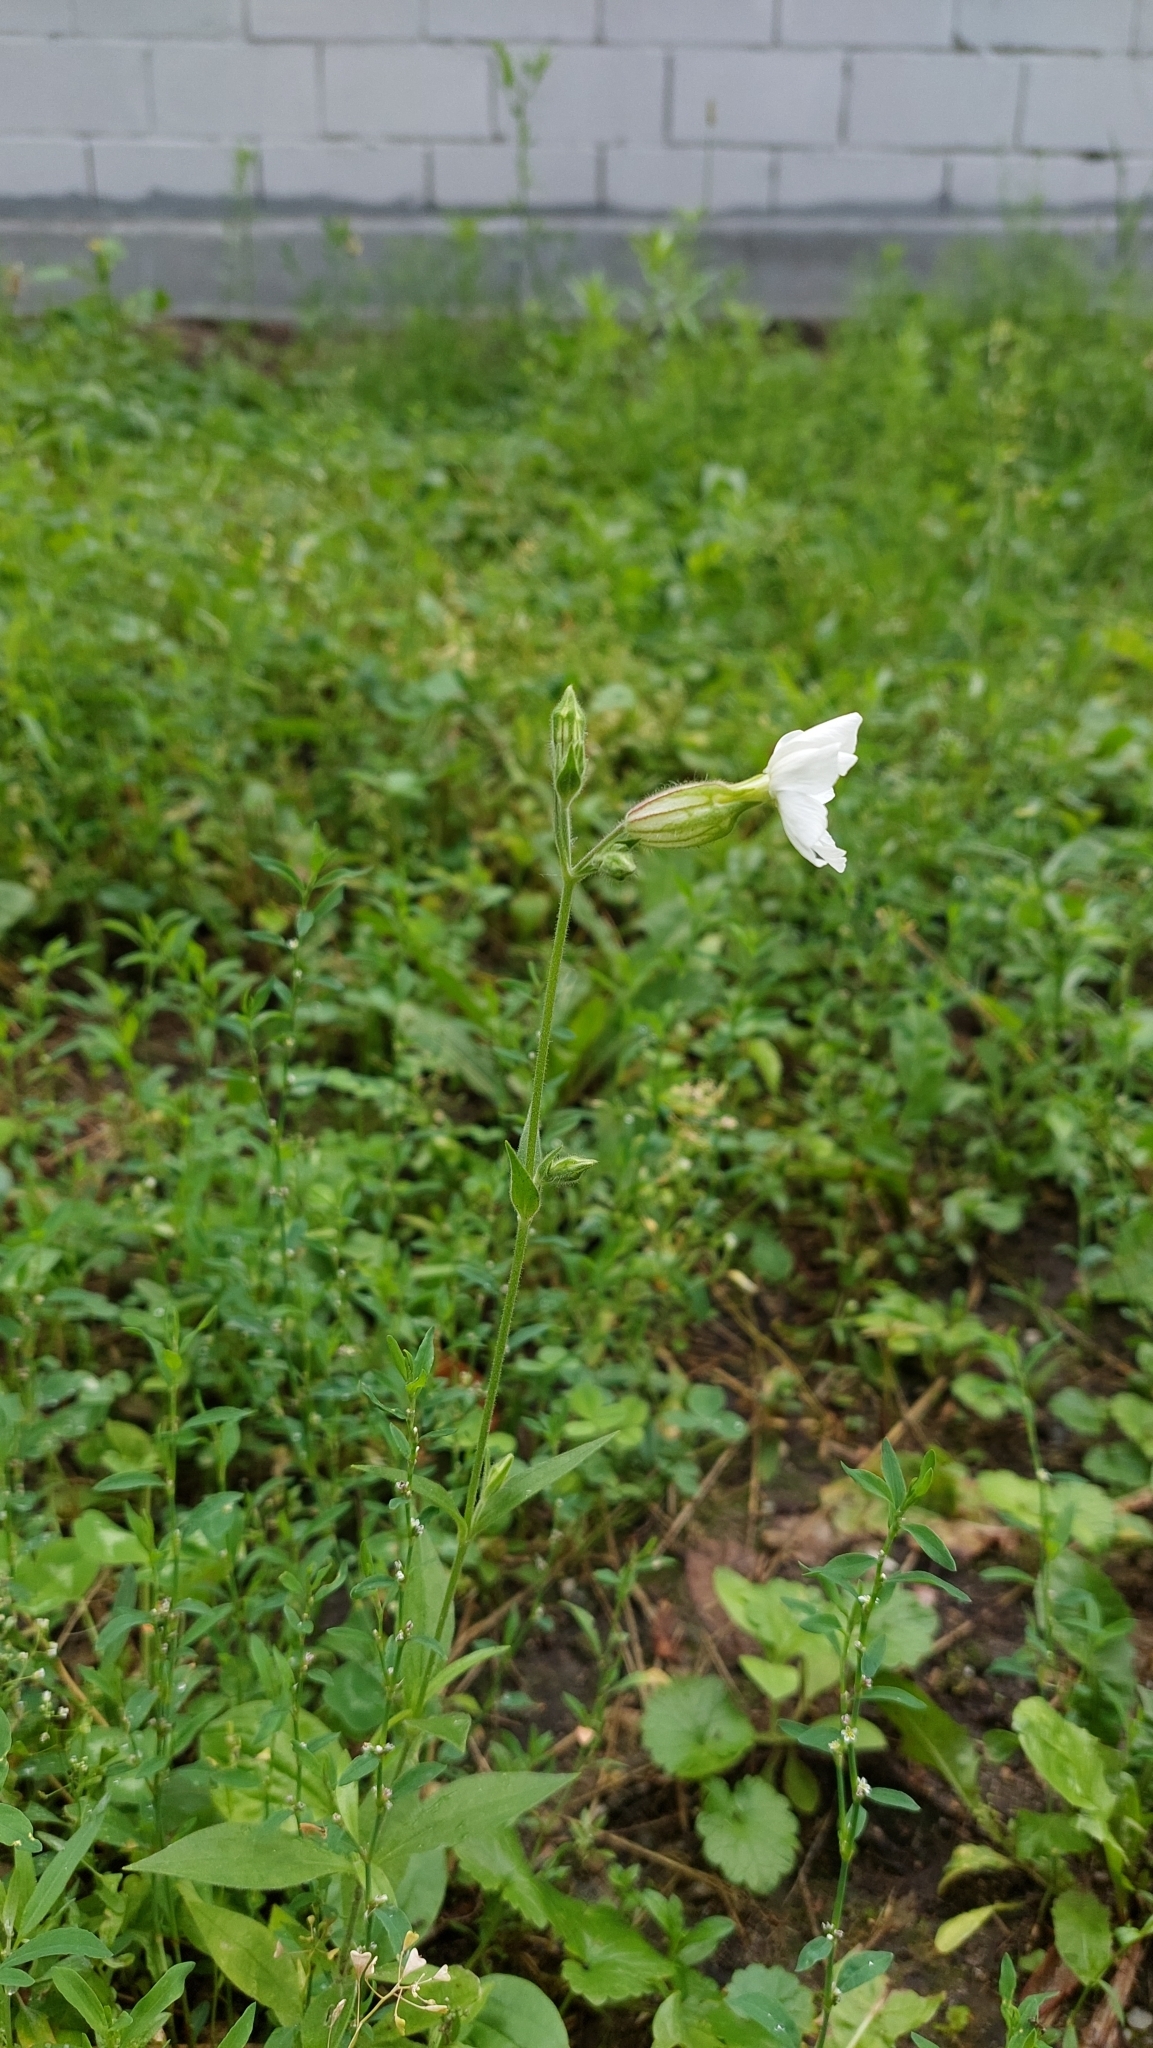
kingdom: Plantae
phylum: Tracheophyta
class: Magnoliopsida
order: Caryophyllales
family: Caryophyllaceae
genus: Silene
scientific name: Silene latifolia
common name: White campion
